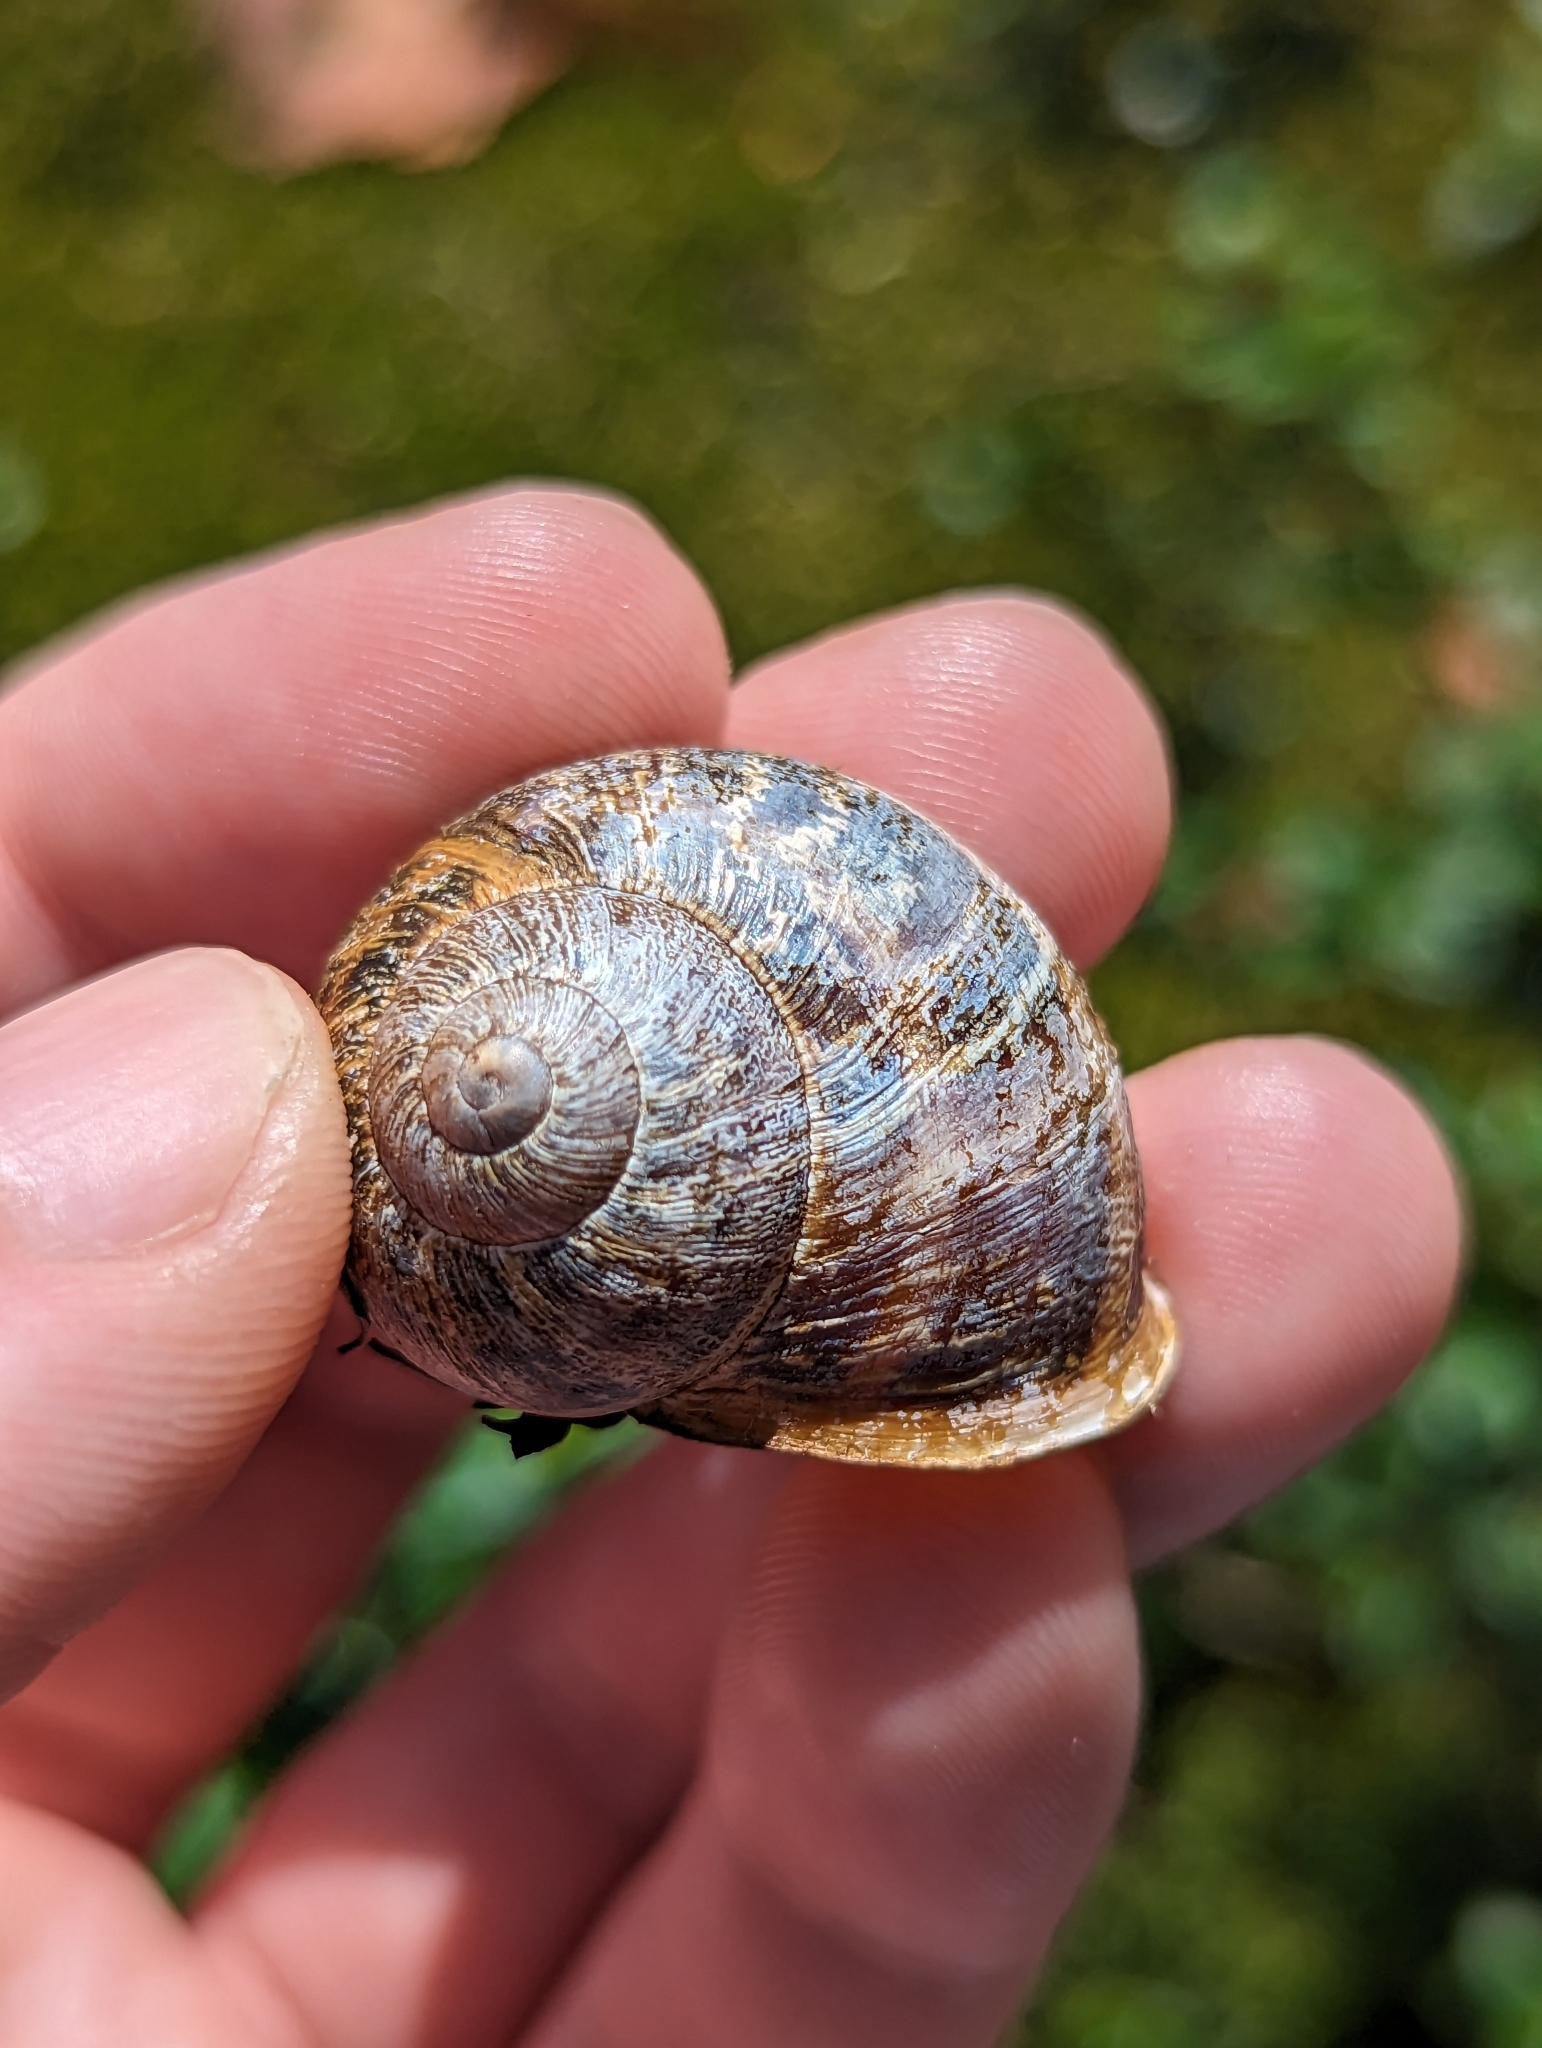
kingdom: Animalia
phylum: Mollusca
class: Gastropoda
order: Stylommatophora
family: Helicidae
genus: Cornu
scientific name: Cornu aspersum
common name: Brown garden snail
